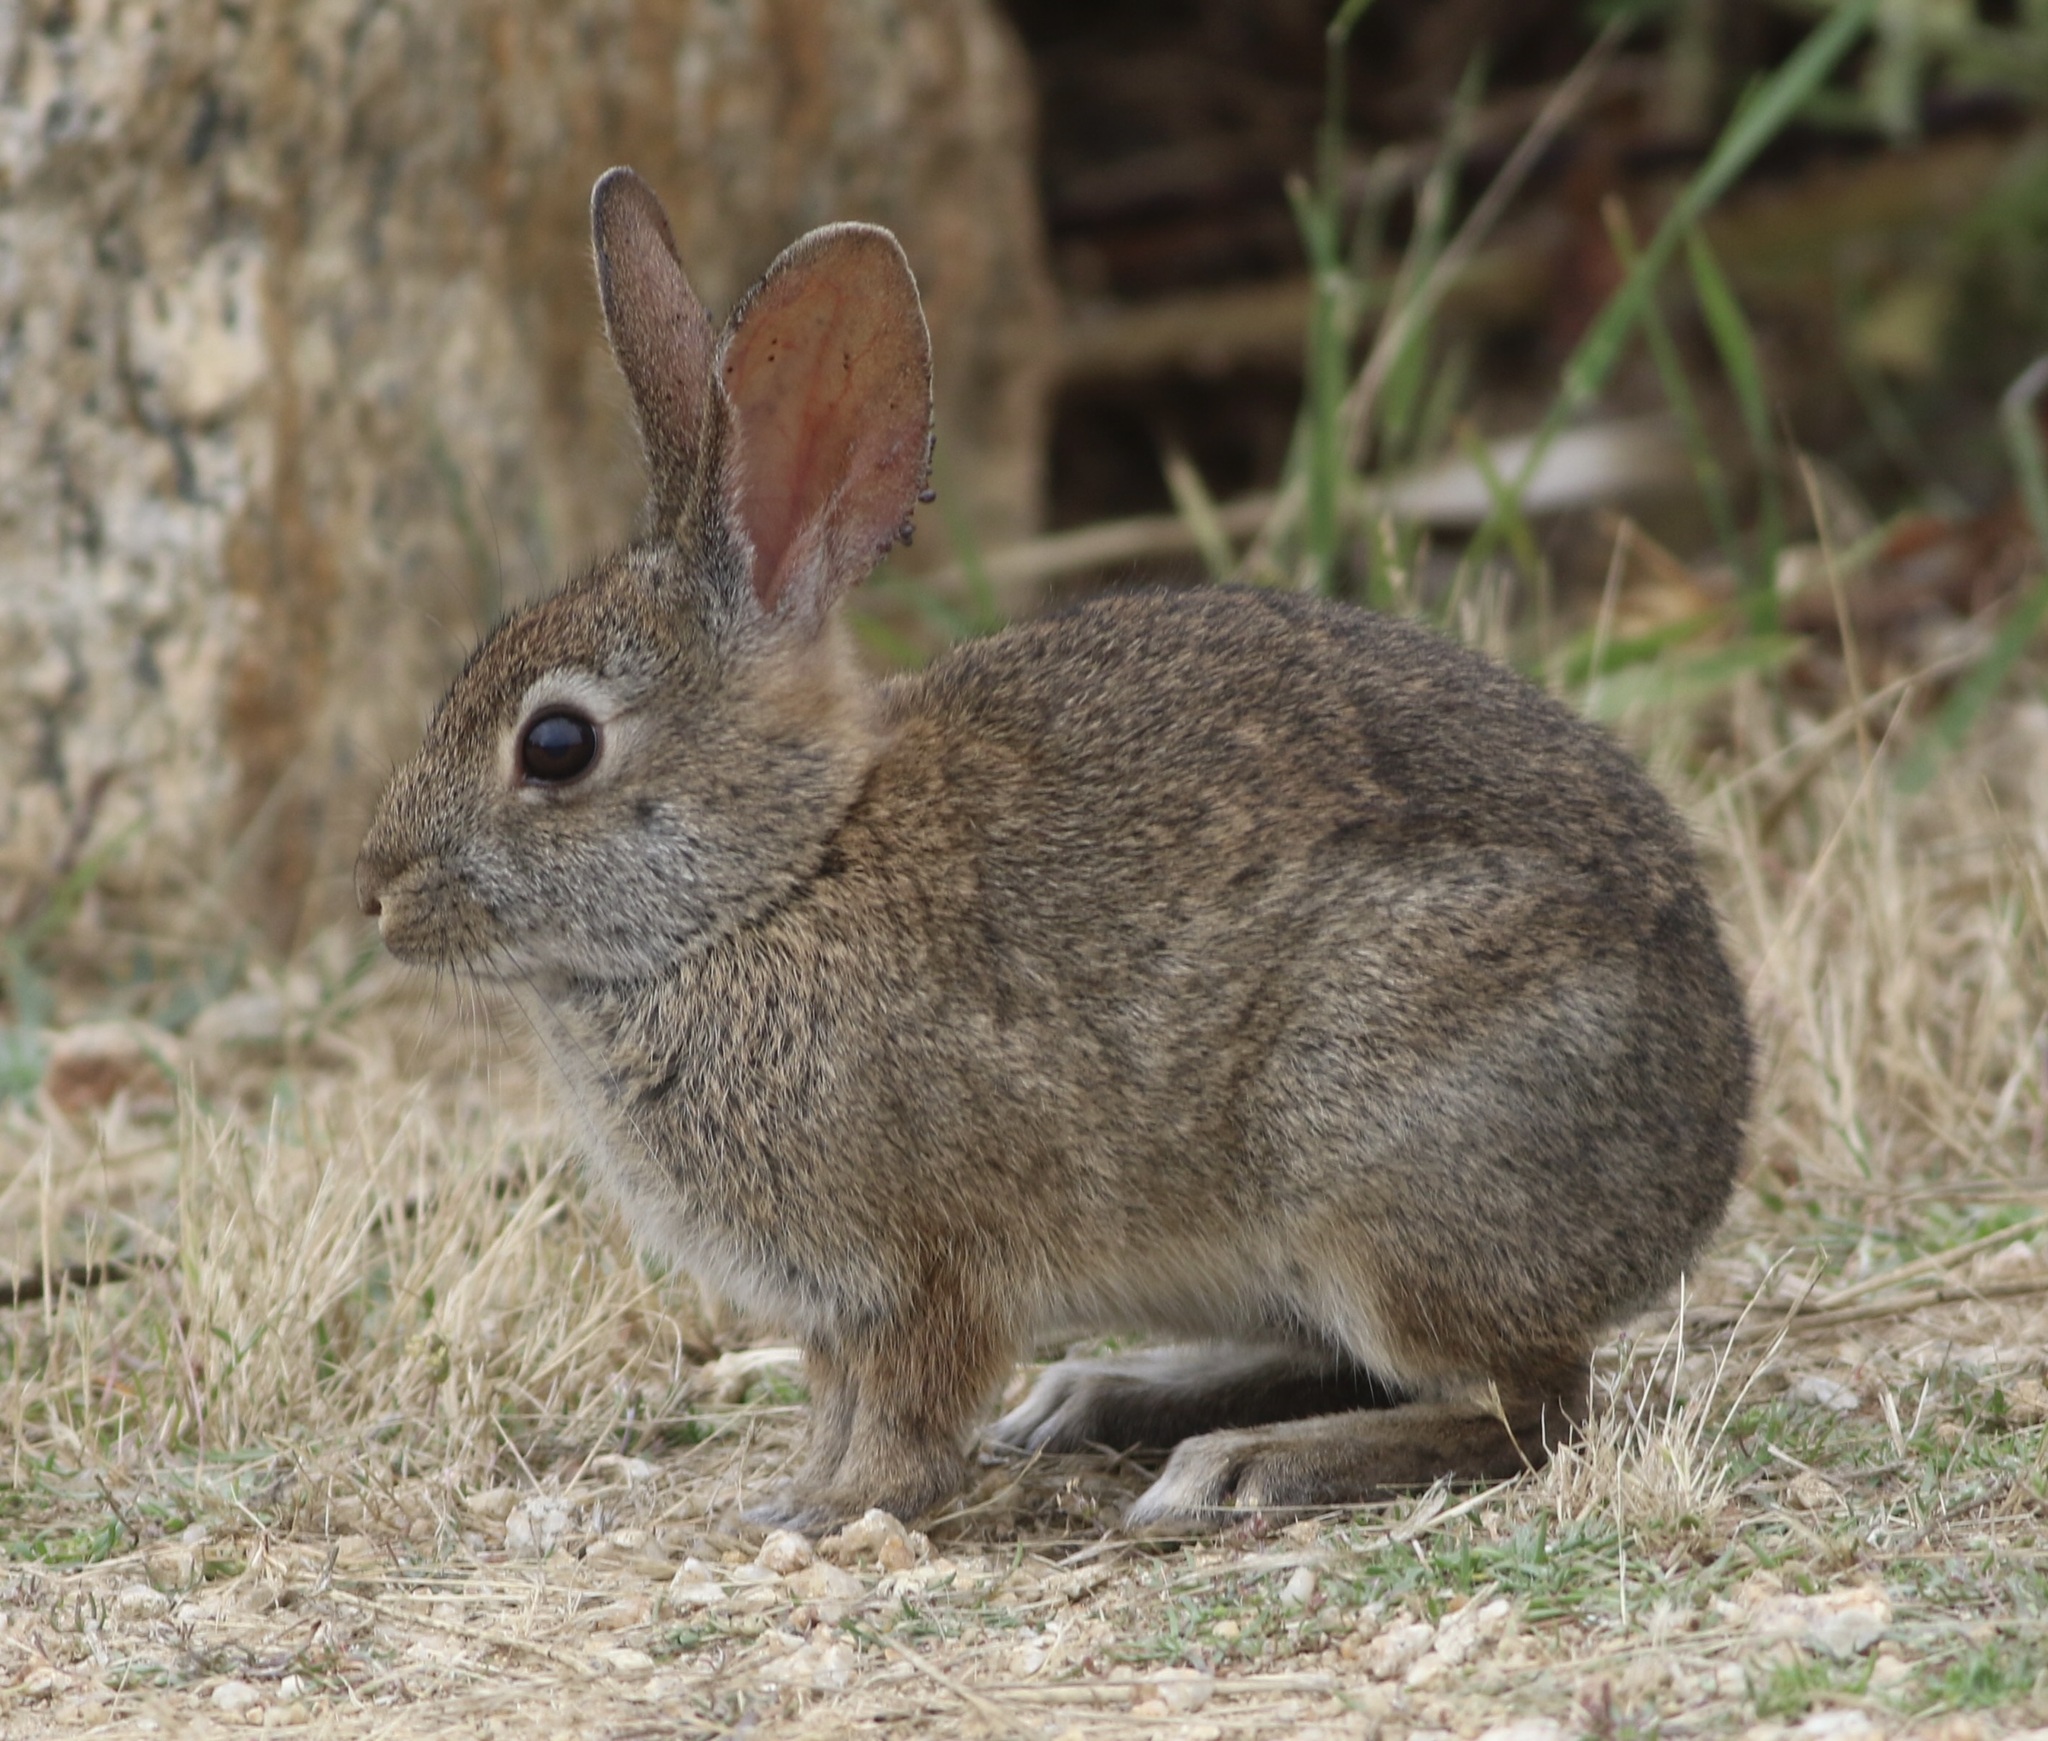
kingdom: Animalia
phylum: Chordata
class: Mammalia
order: Lagomorpha
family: Leporidae
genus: Sylvilagus
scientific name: Sylvilagus bachmani
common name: Brush rabbit
